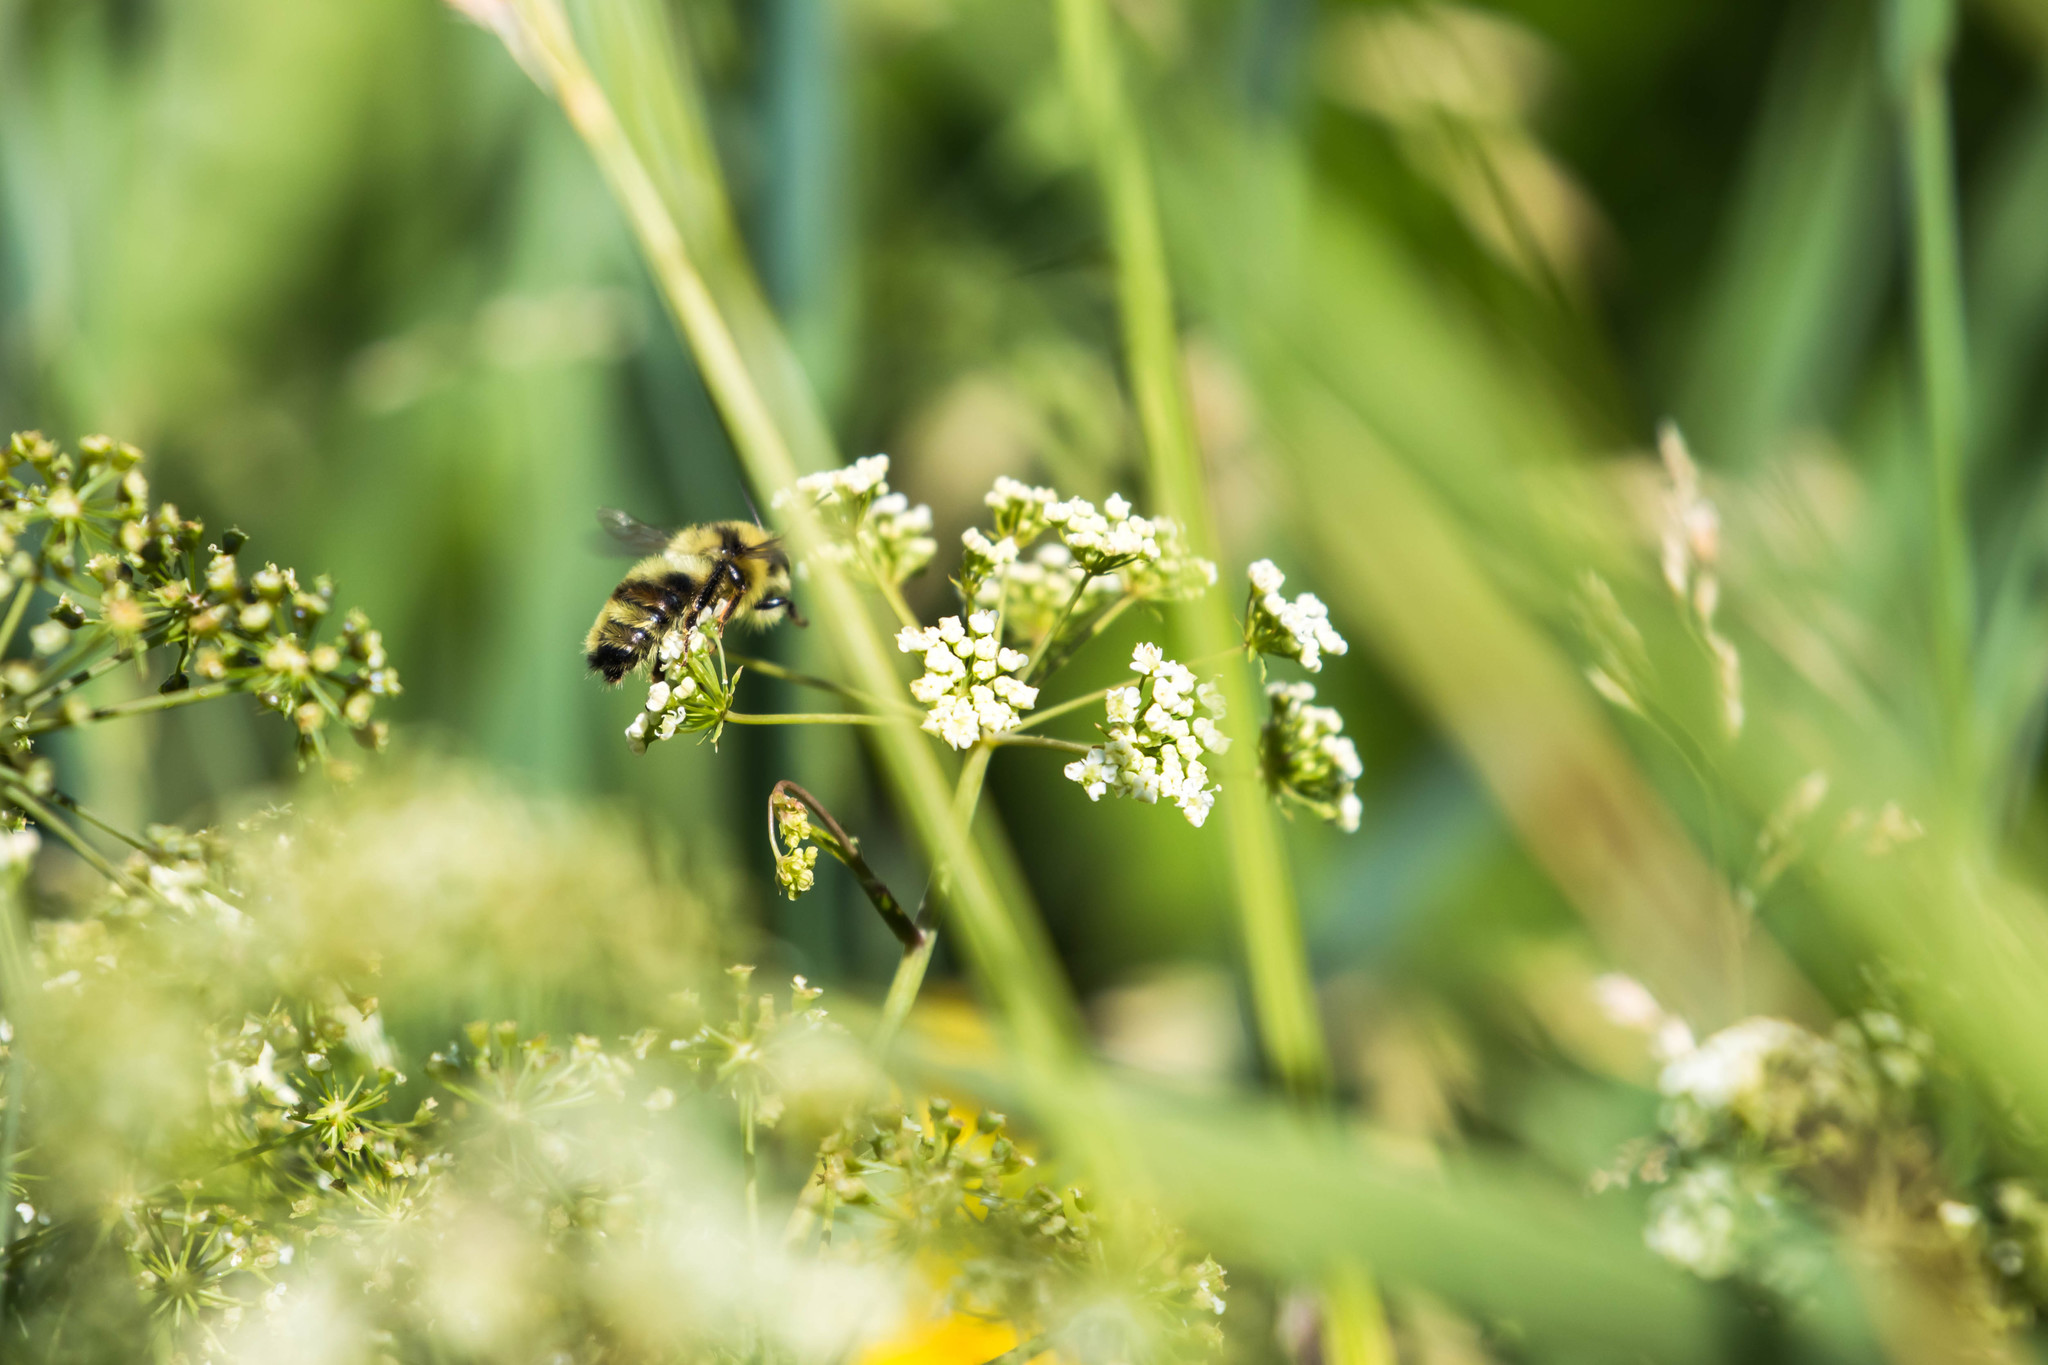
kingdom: Animalia
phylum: Arthropoda
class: Insecta
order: Hymenoptera
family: Apidae
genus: Bombus
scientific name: Bombus vancouverensis
